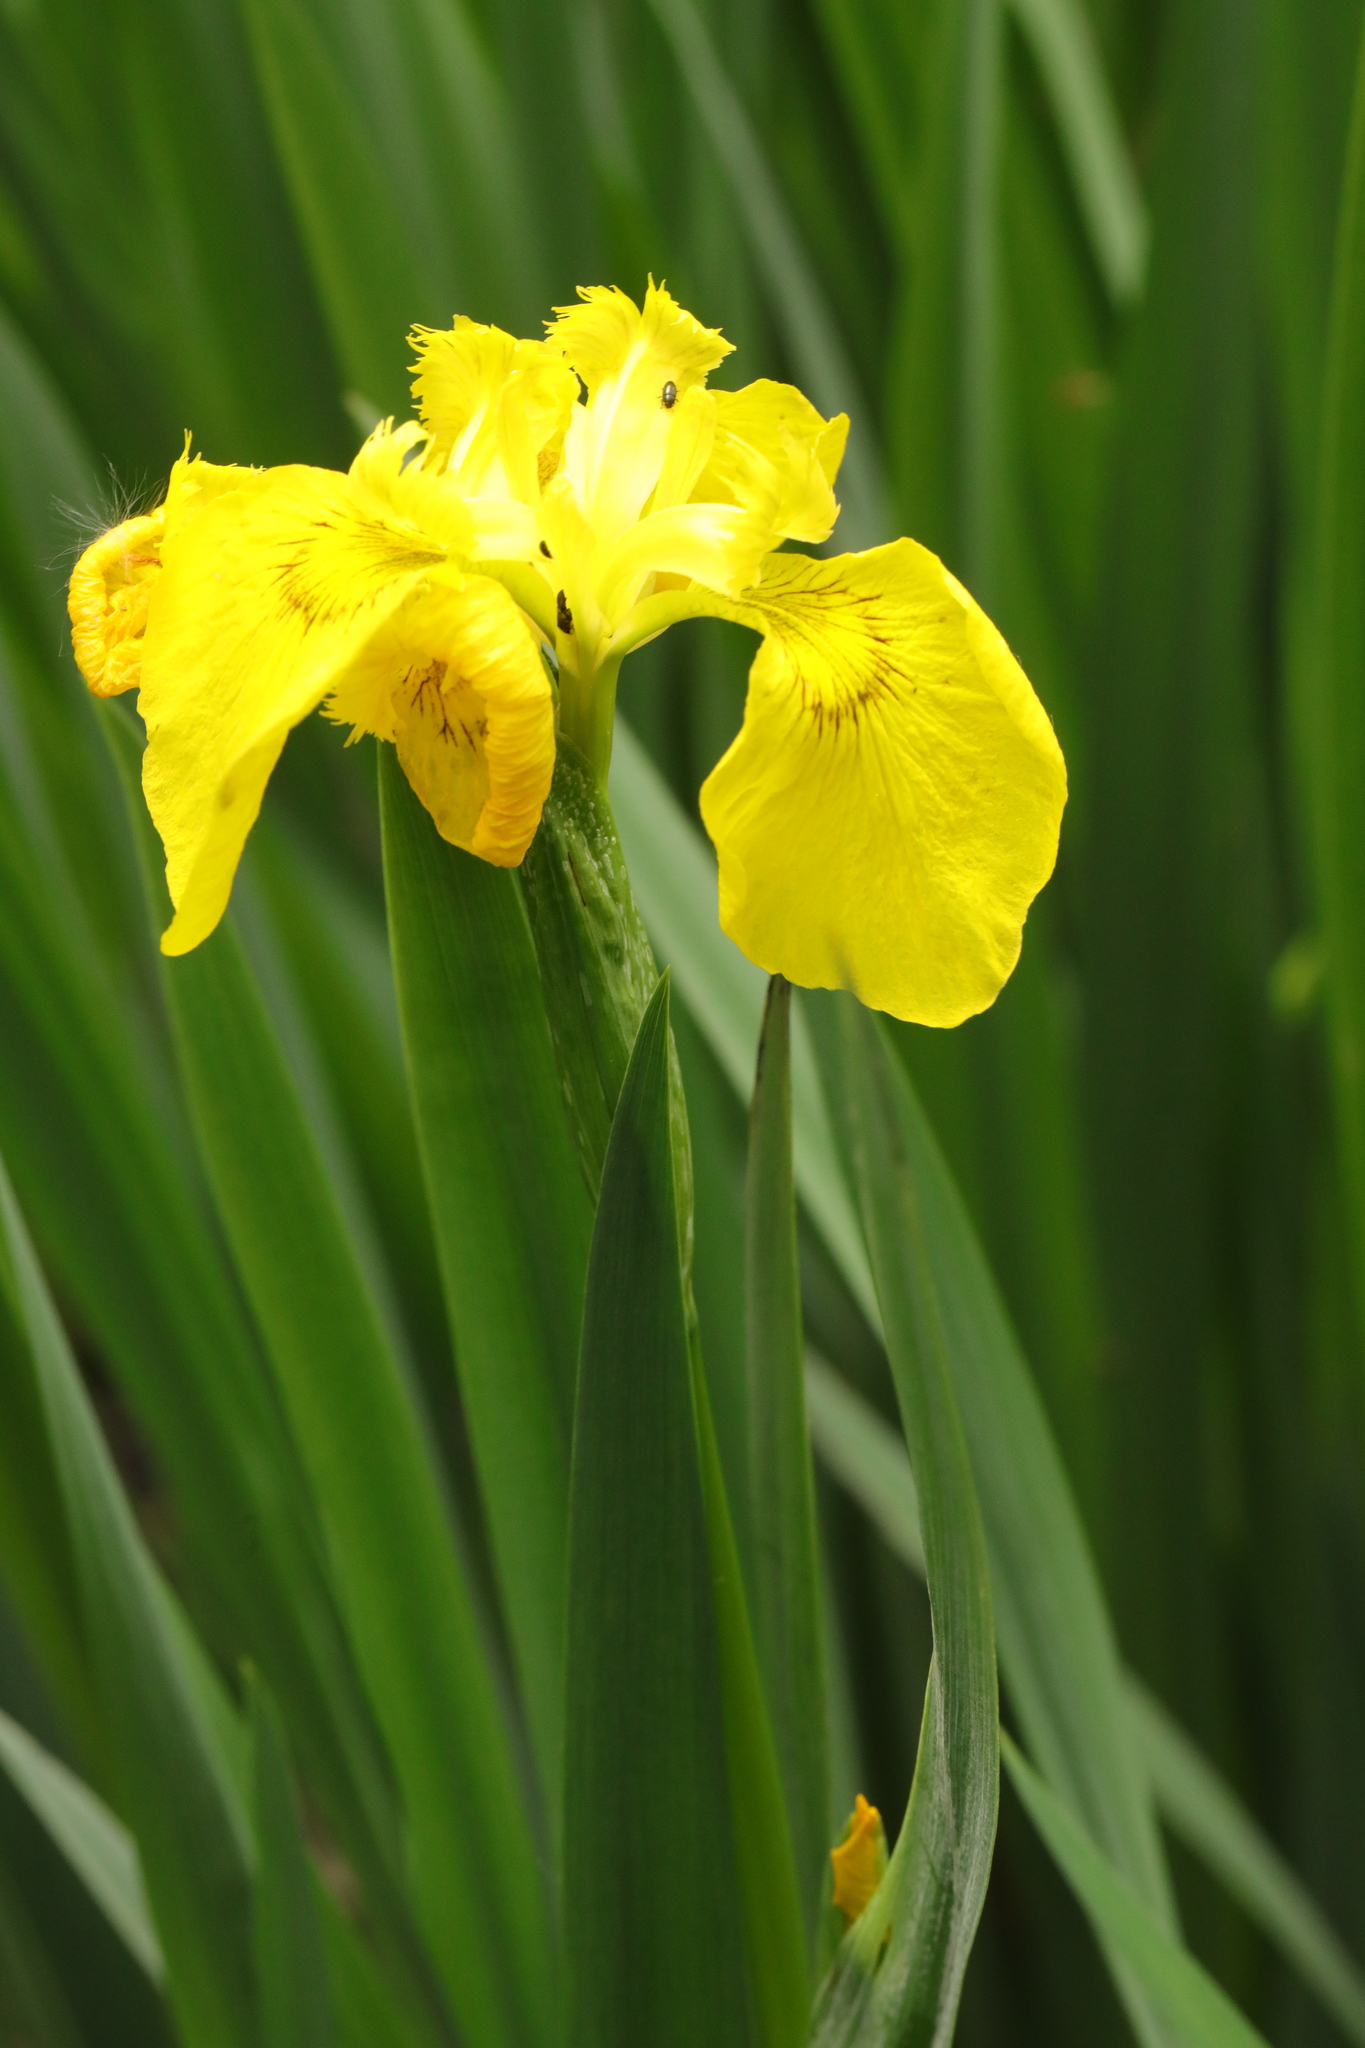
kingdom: Plantae
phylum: Tracheophyta
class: Liliopsida
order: Asparagales
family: Iridaceae
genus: Iris
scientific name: Iris pseudacorus
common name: Yellow flag
